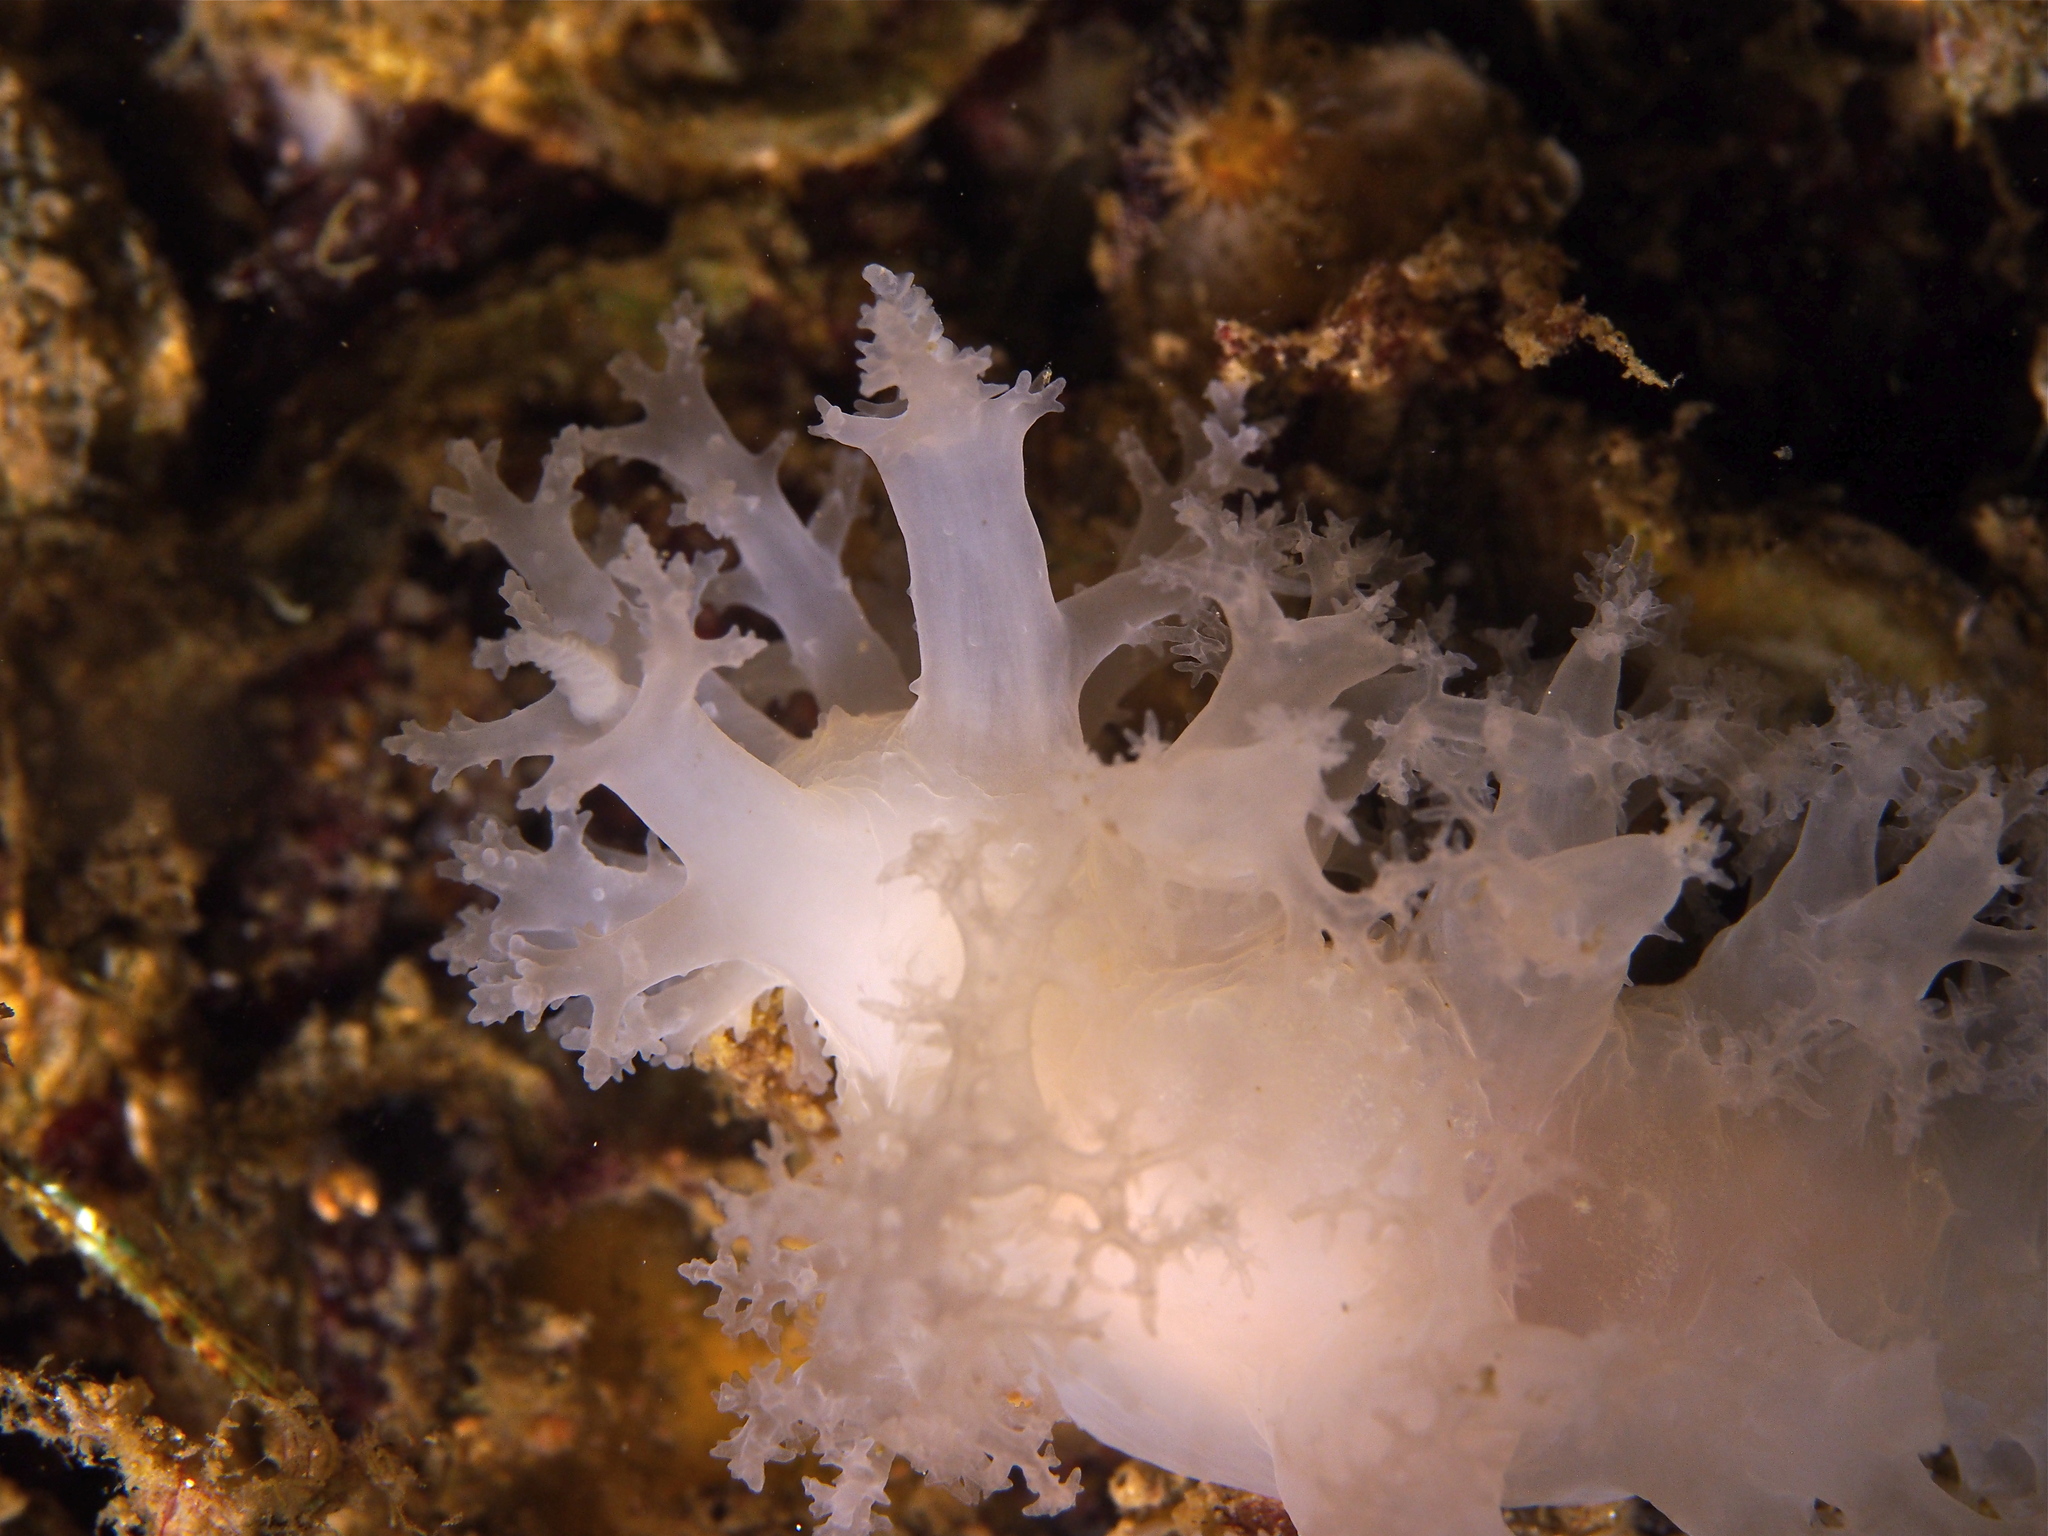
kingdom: Animalia
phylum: Mollusca
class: Gastropoda
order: Nudibranchia
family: Dendronotidae
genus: Dendronotus
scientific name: Dendronotus lacteus
